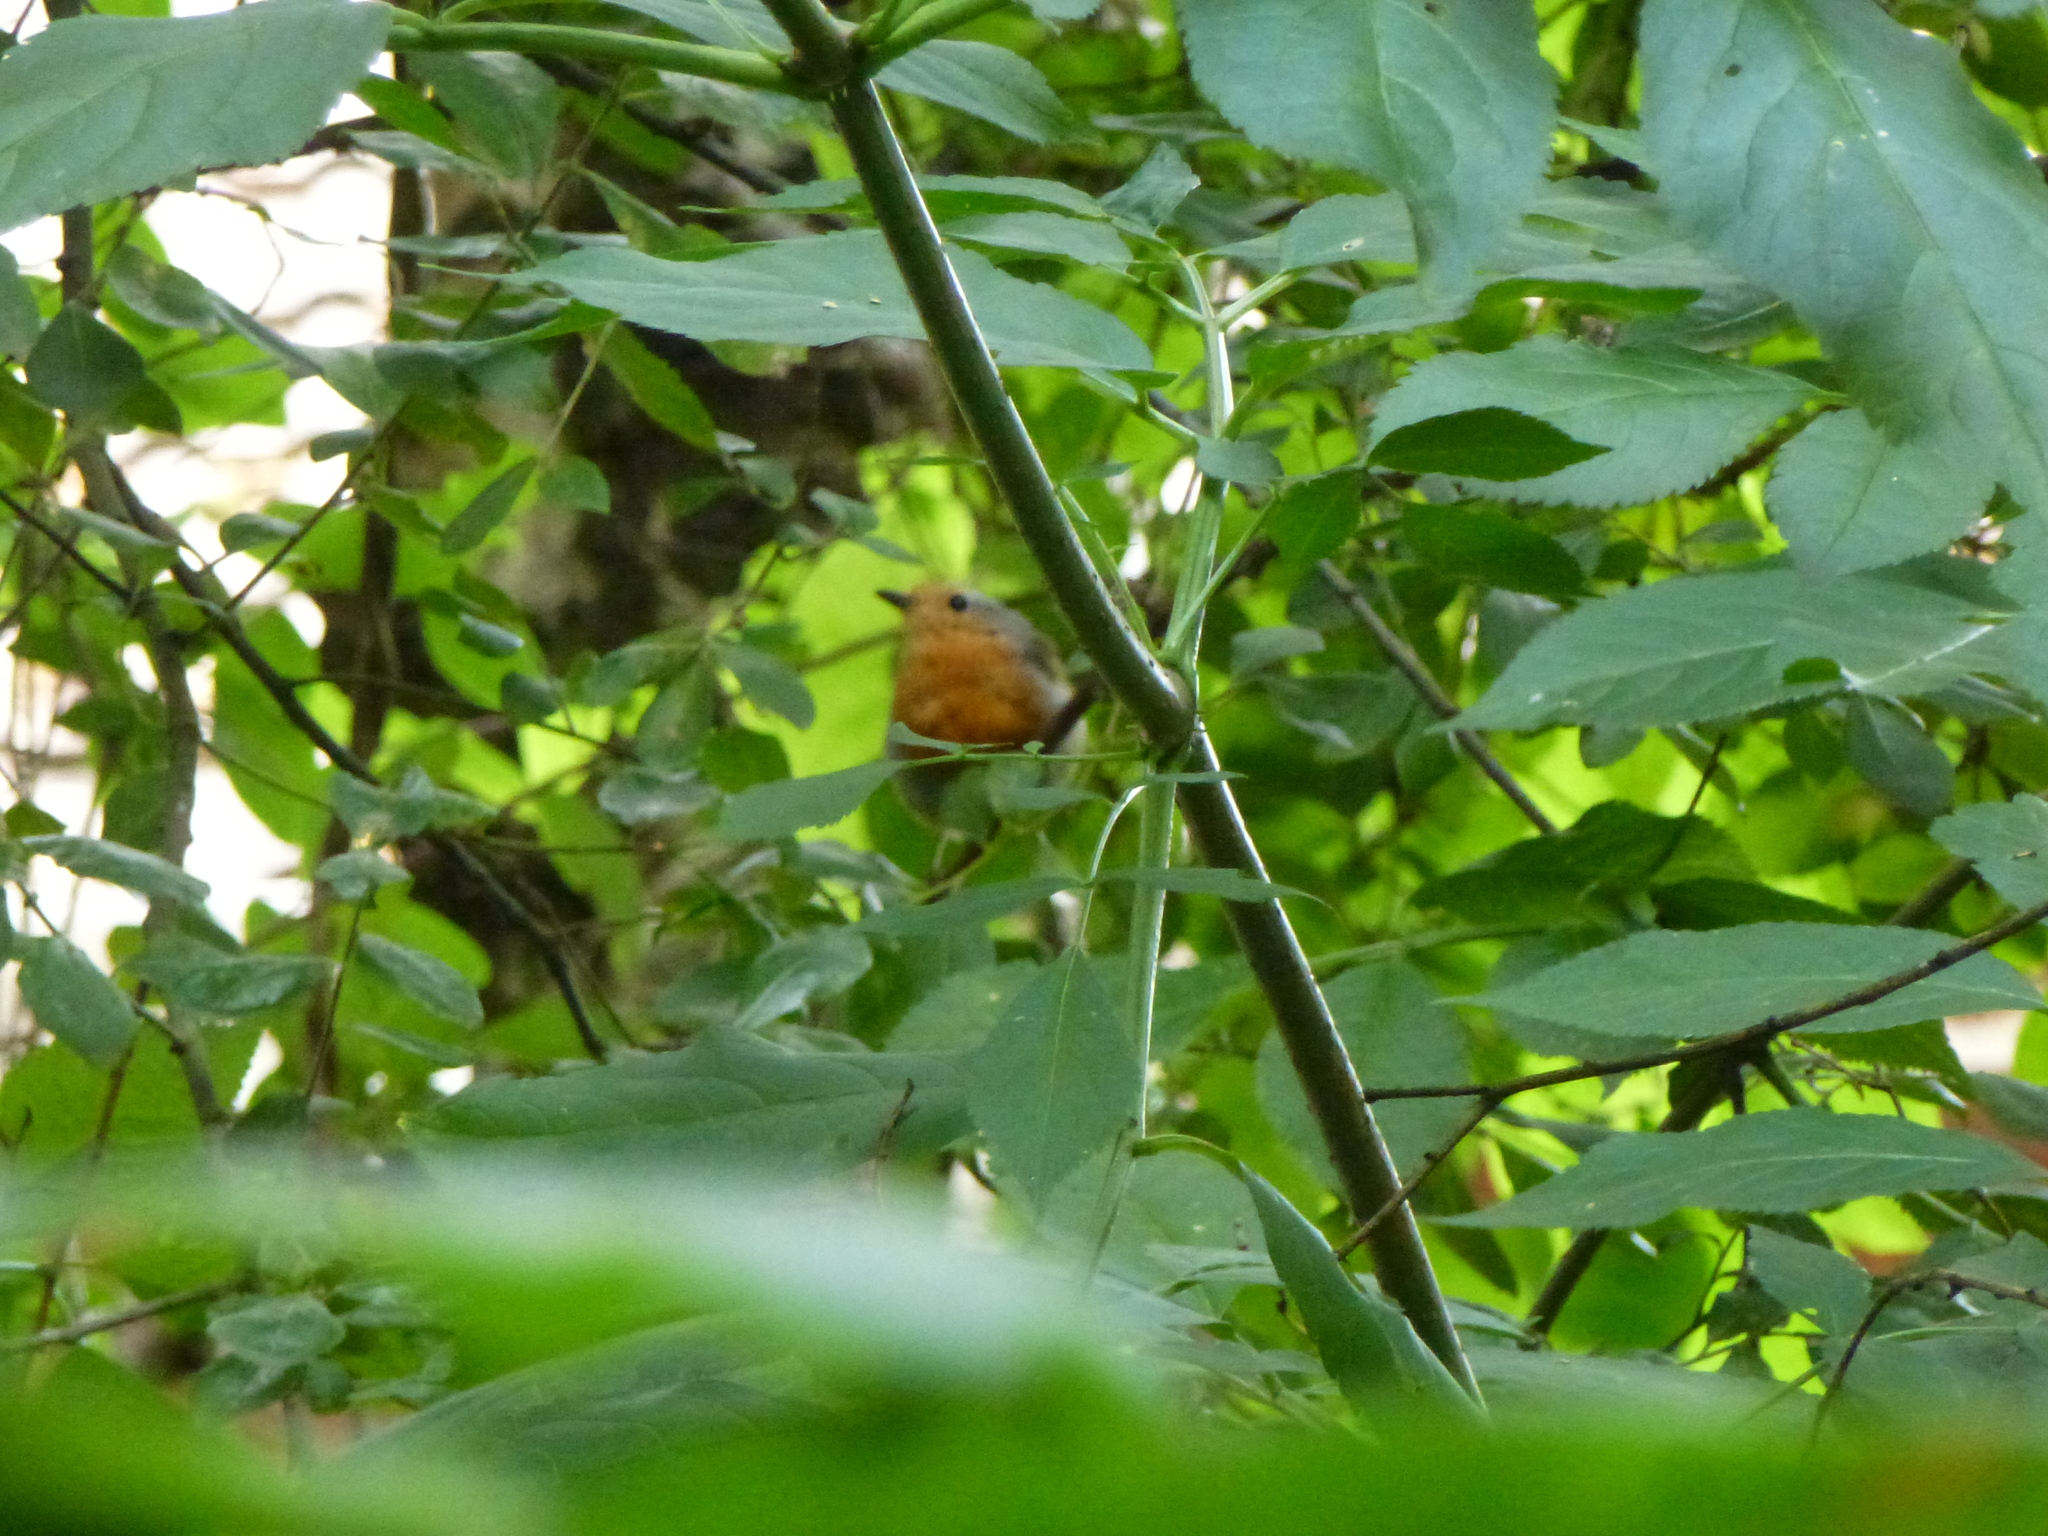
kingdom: Animalia
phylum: Chordata
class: Aves
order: Passeriformes
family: Muscicapidae
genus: Erithacus
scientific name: Erithacus rubecula
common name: European robin
